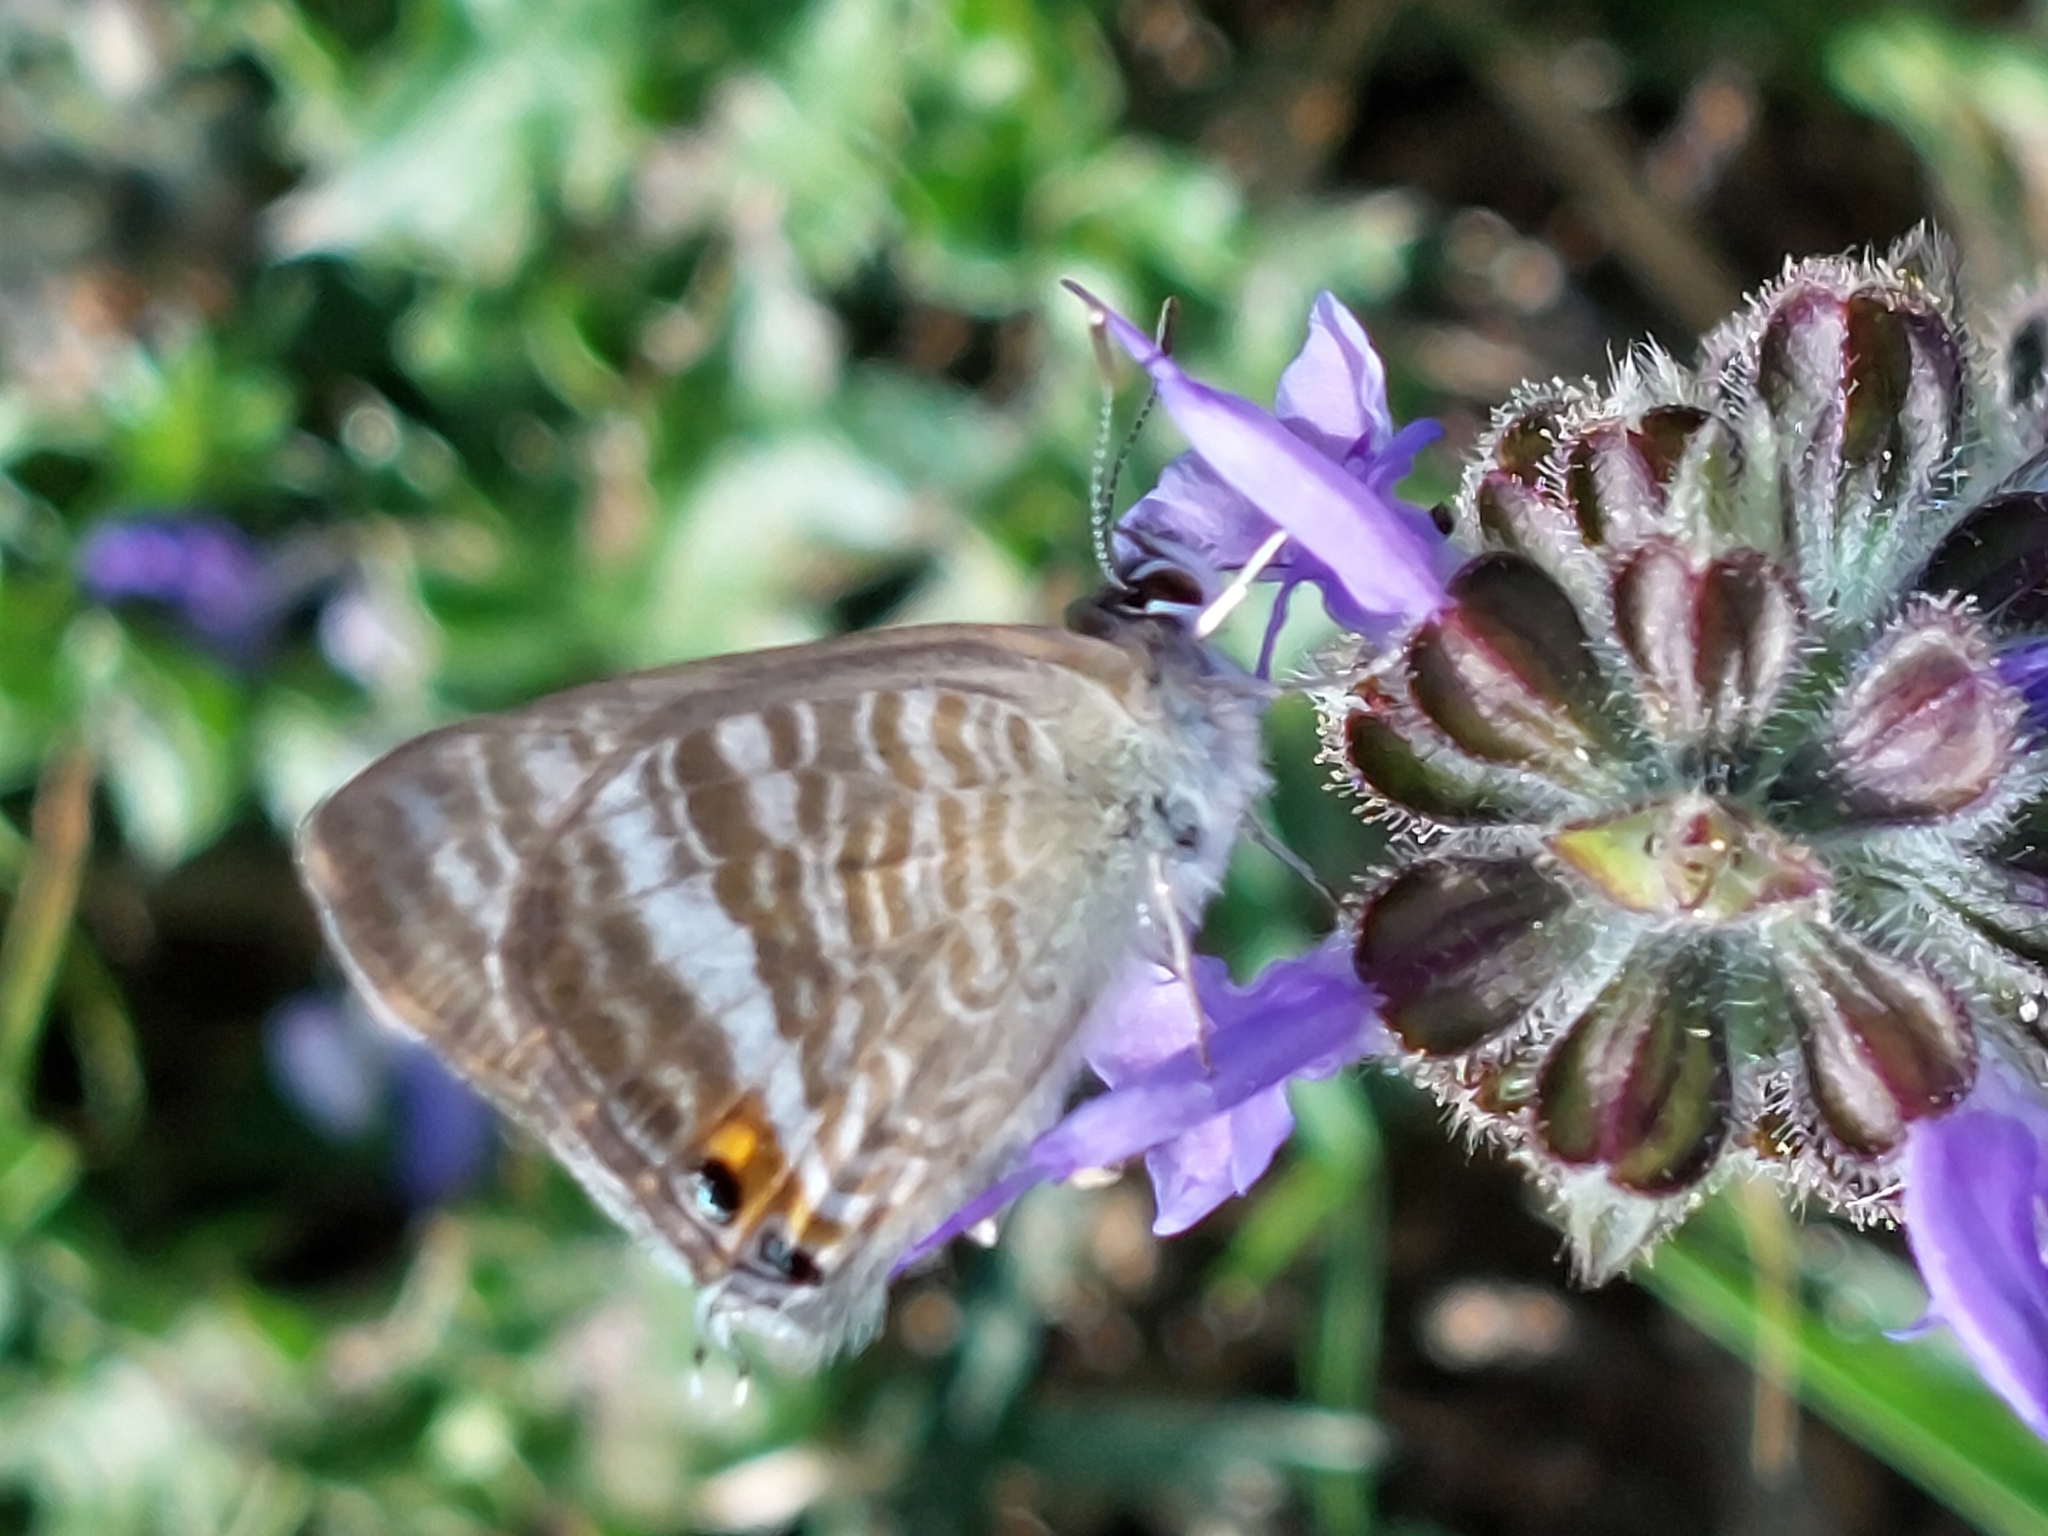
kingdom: Animalia
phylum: Arthropoda
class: Insecta
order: Lepidoptera
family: Lycaenidae
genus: Lampides
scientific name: Lampides boeticus
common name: Long-tailed blue
